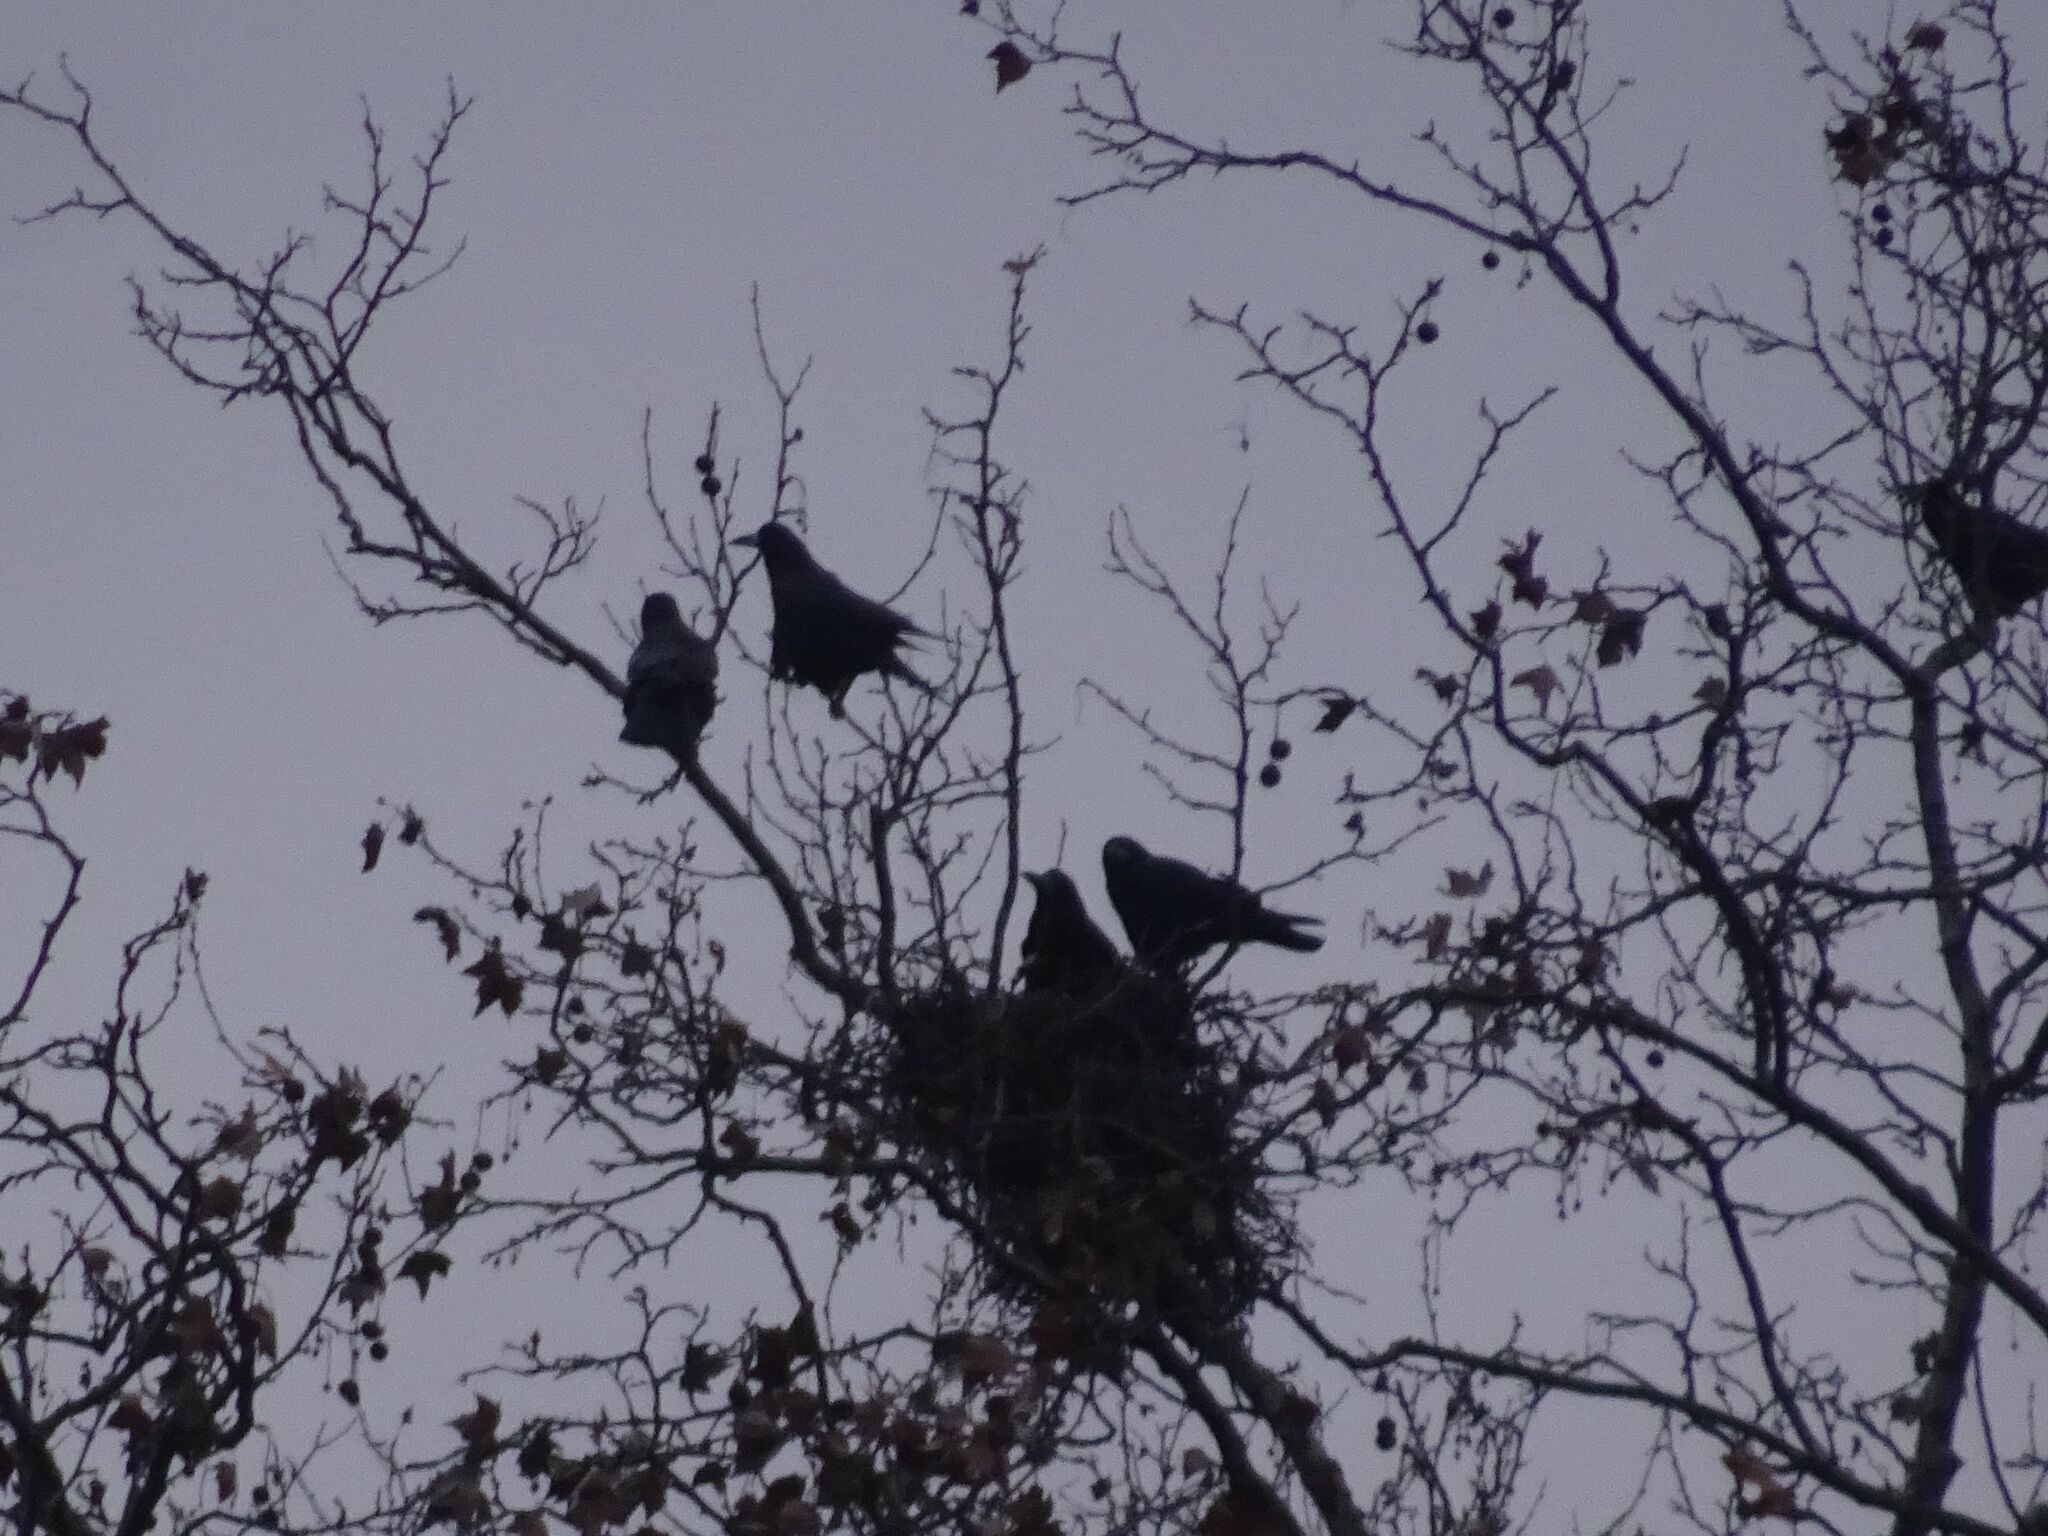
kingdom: Animalia
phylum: Chordata
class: Aves
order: Passeriformes
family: Corvidae
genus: Corvus
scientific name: Corvus frugilegus
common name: Rook
